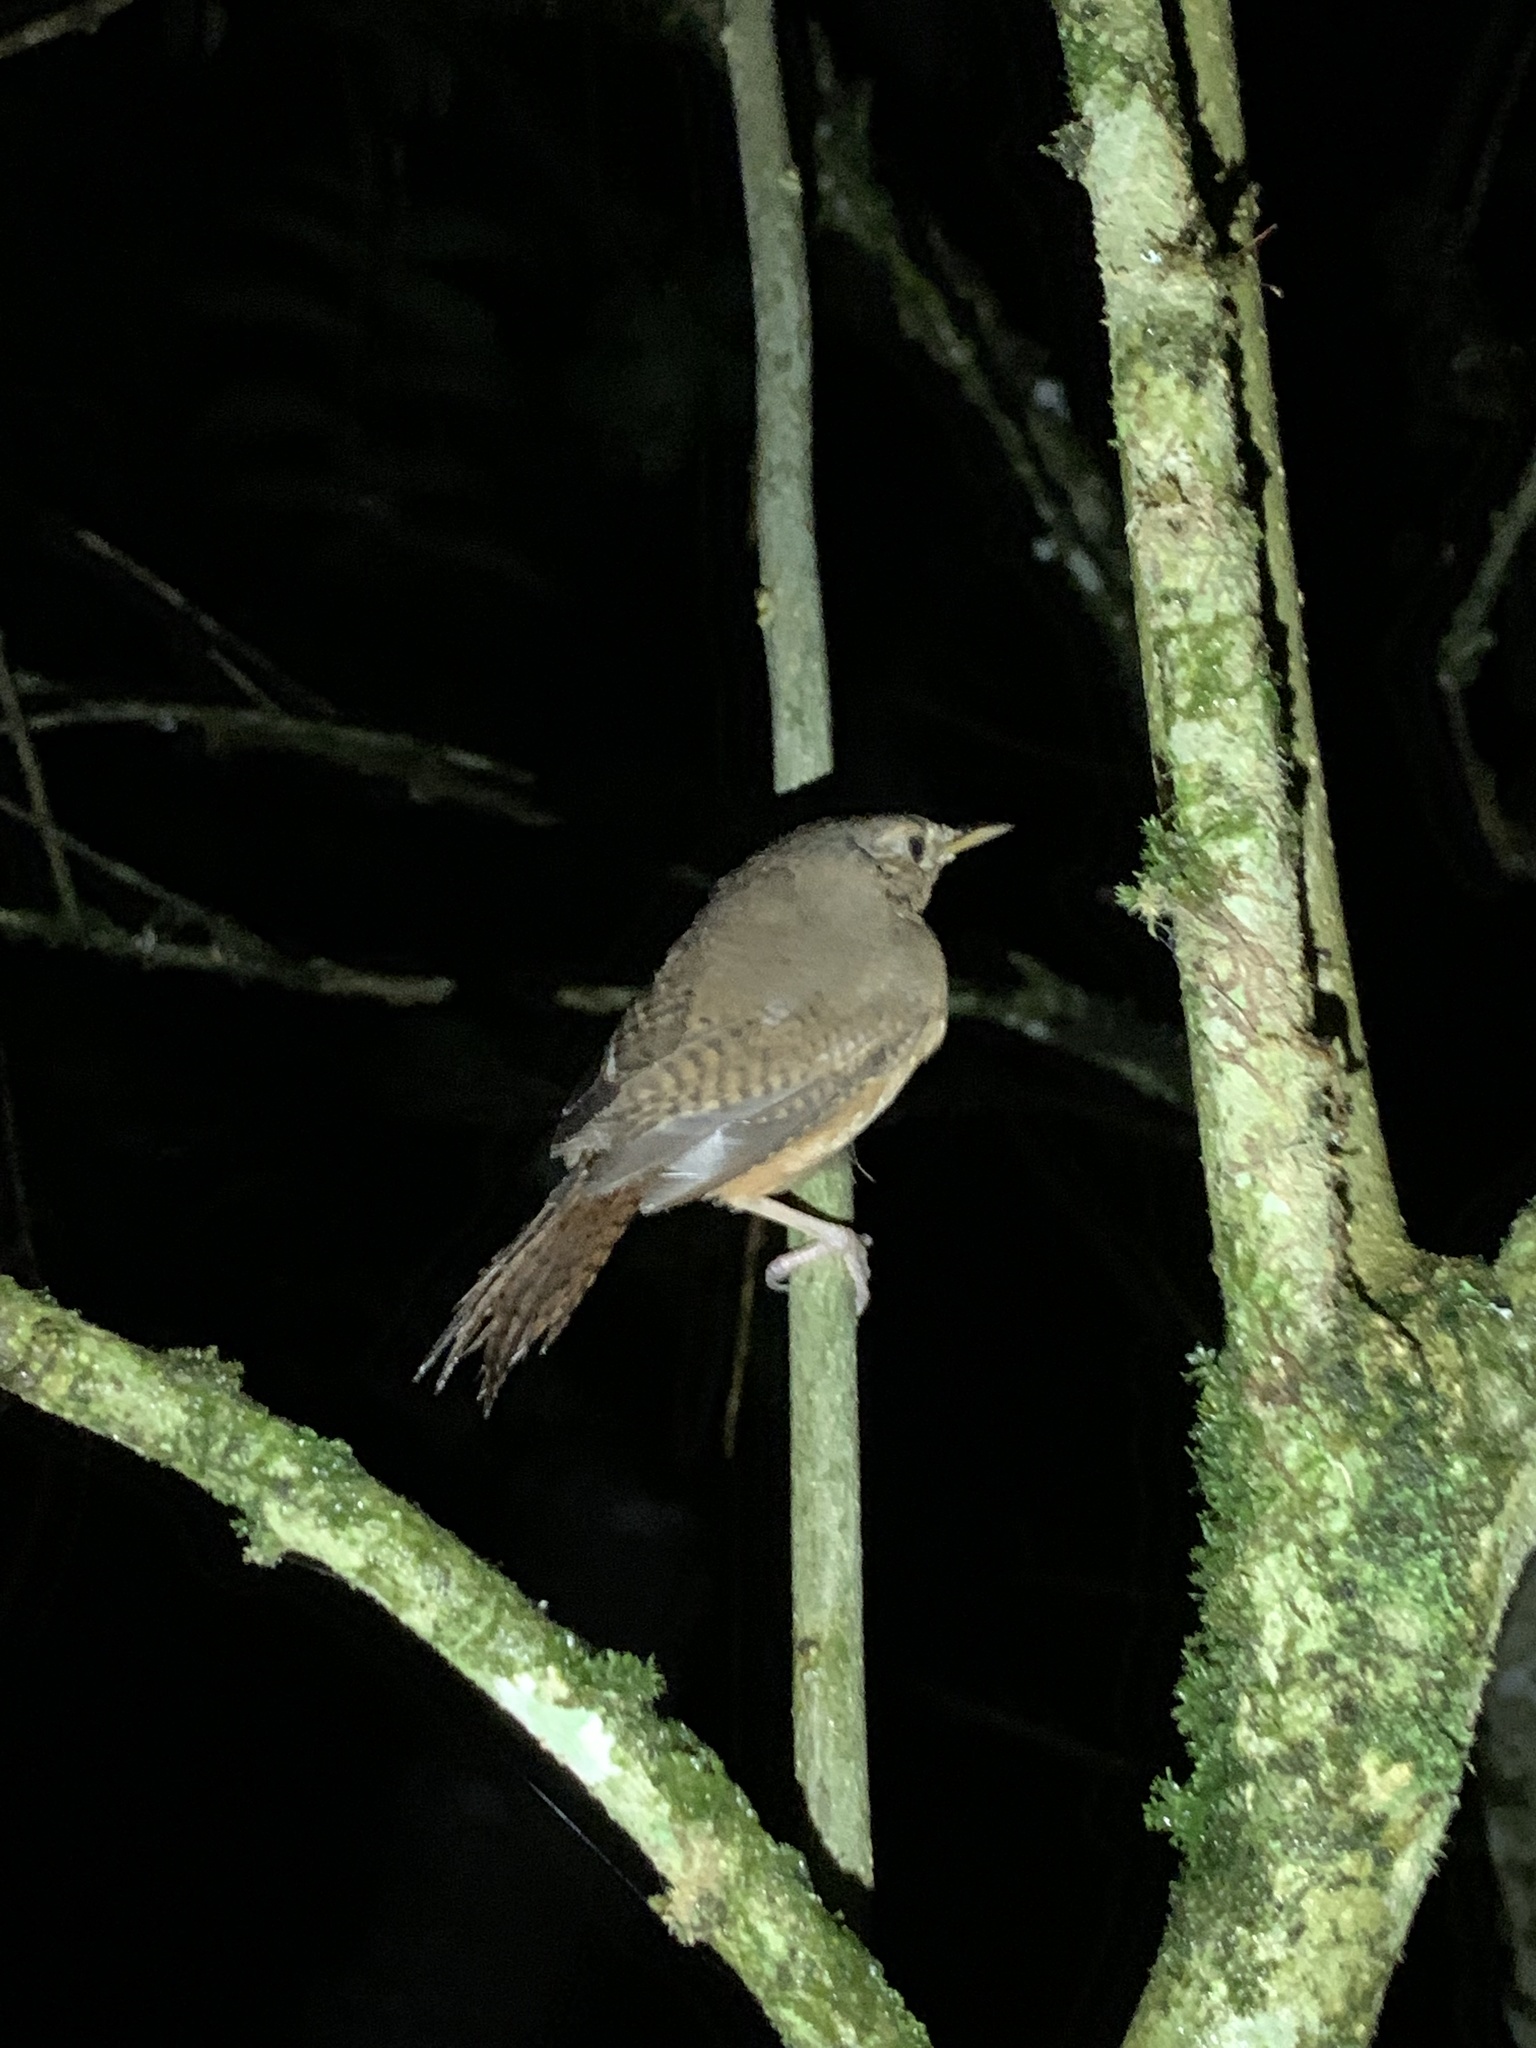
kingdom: Animalia
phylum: Chordata
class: Aves
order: Passeriformes
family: Troglodytidae
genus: Troglodytes
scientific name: Troglodytes aedon
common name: House wren
